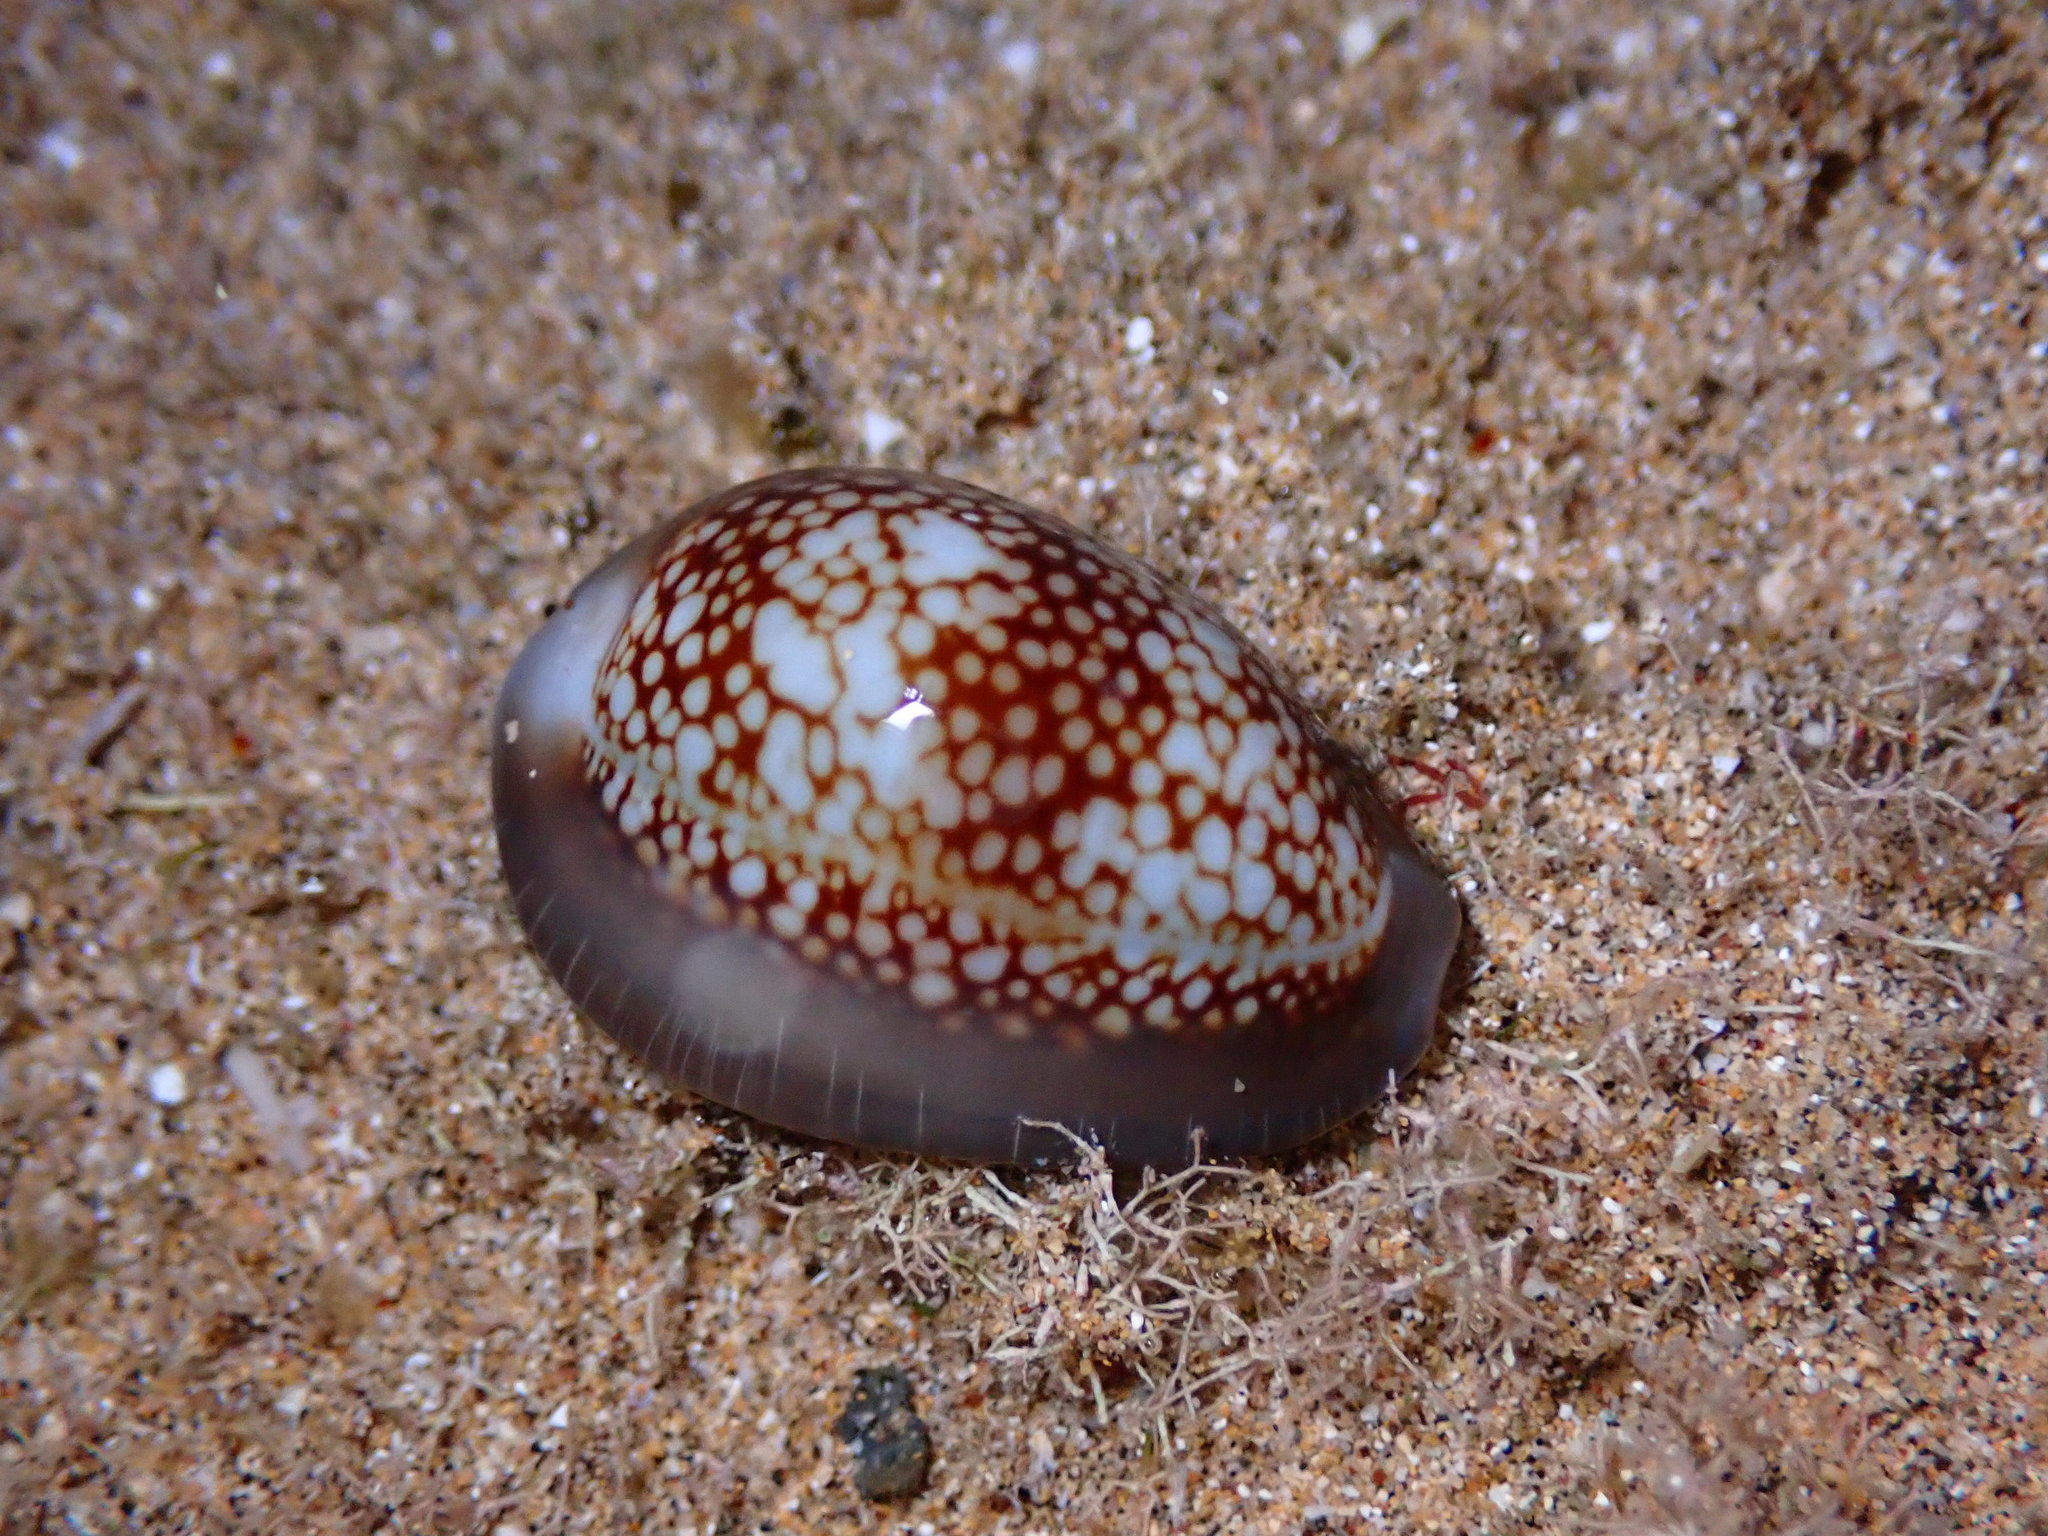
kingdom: Animalia
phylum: Mollusca
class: Gastropoda
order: Littorinimorpha
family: Cypraeidae
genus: Monetaria
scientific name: Monetaria caputophidii
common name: Snake's head cowry
